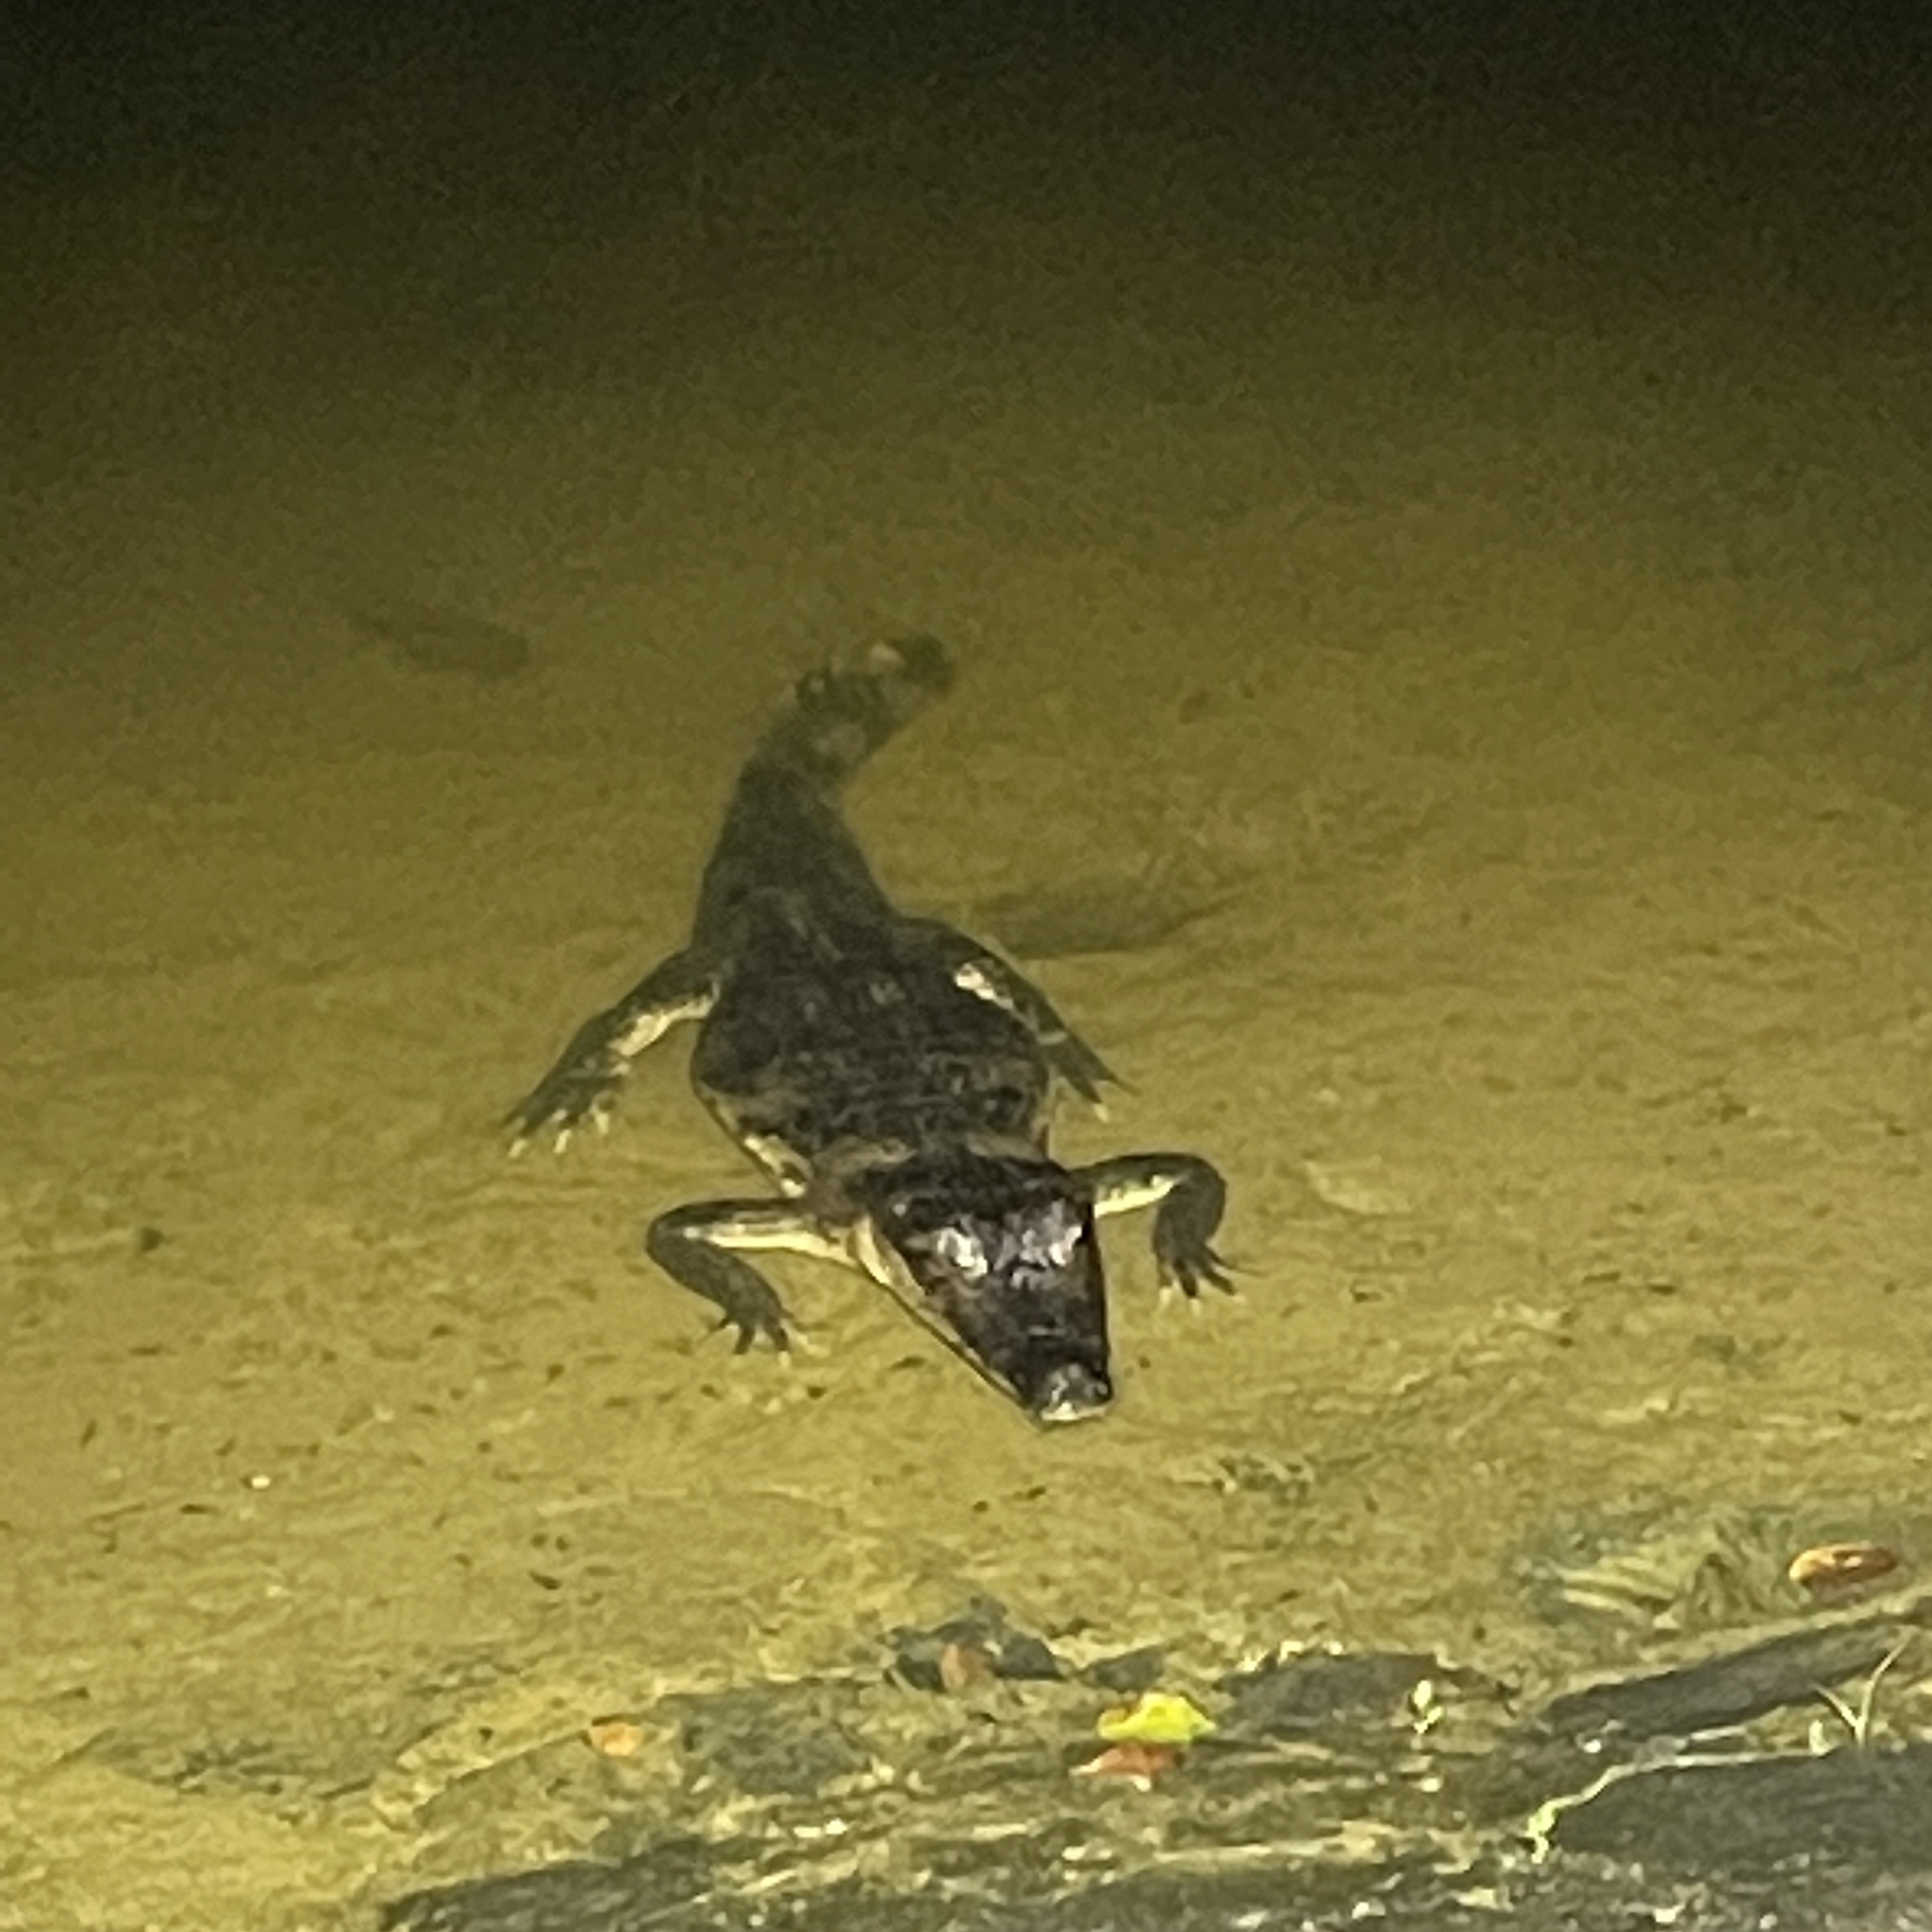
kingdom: Animalia
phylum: Chordata
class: Crocodylia
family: Alligatoridae
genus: Caiman
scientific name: Caiman crocodilus
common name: Common caiman
